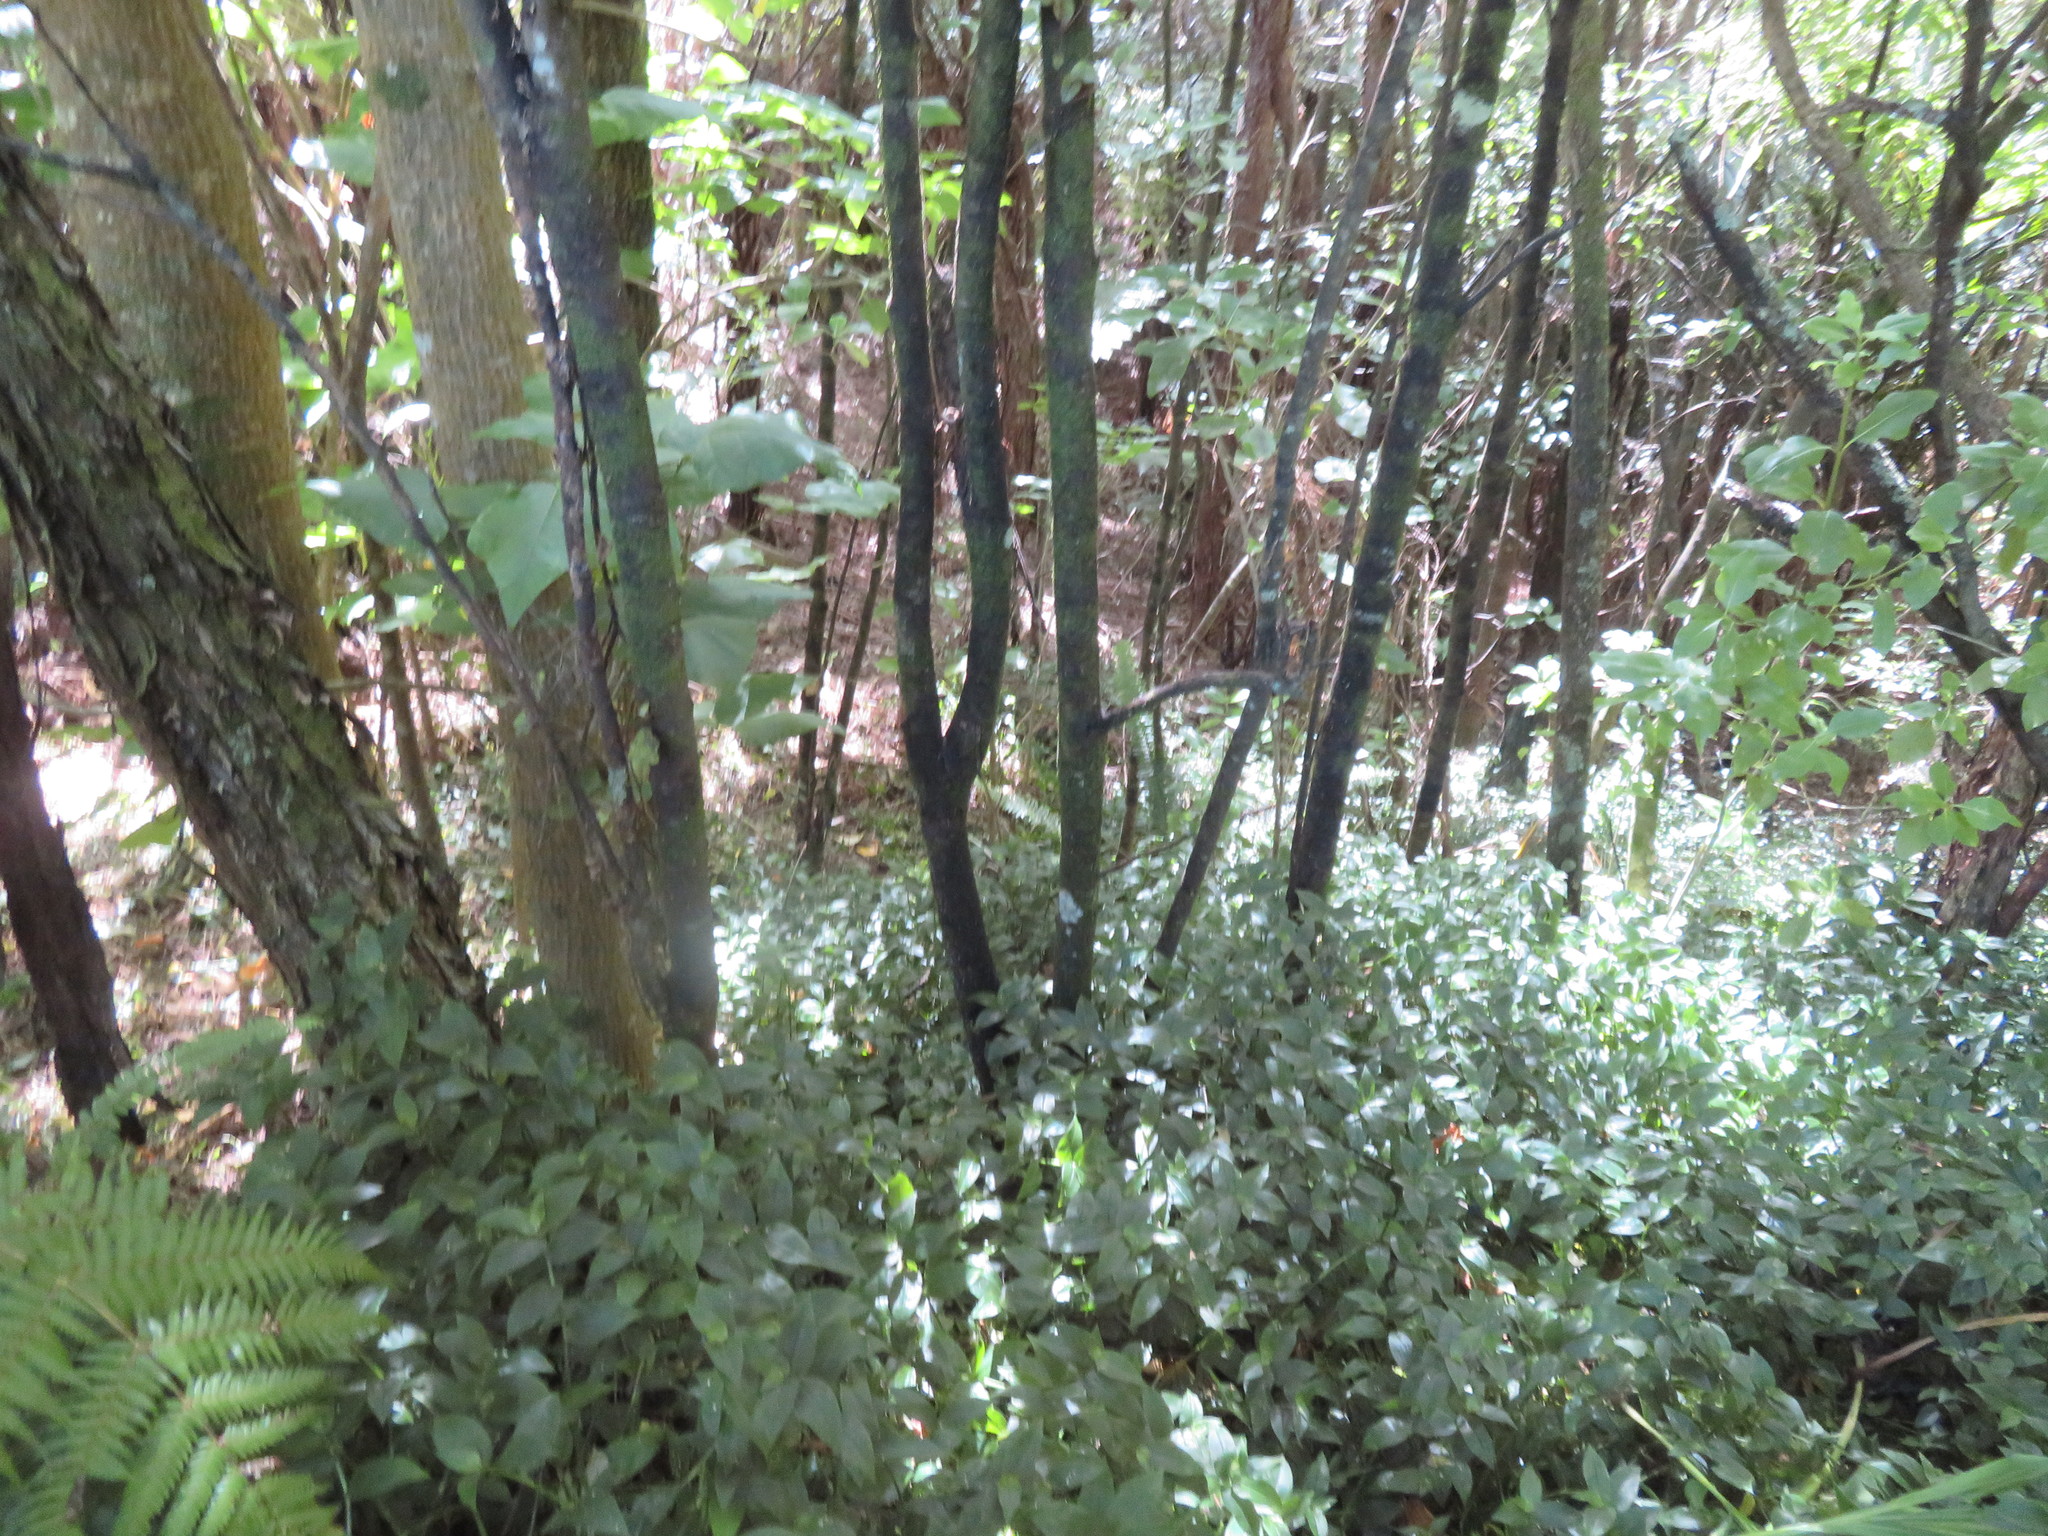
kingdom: Plantae
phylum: Tracheophyta
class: Liliopsida
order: Commelinales
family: Commelinaceae
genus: Tradescantia
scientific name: Tradescantia fluminensis
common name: Wandering-jew
